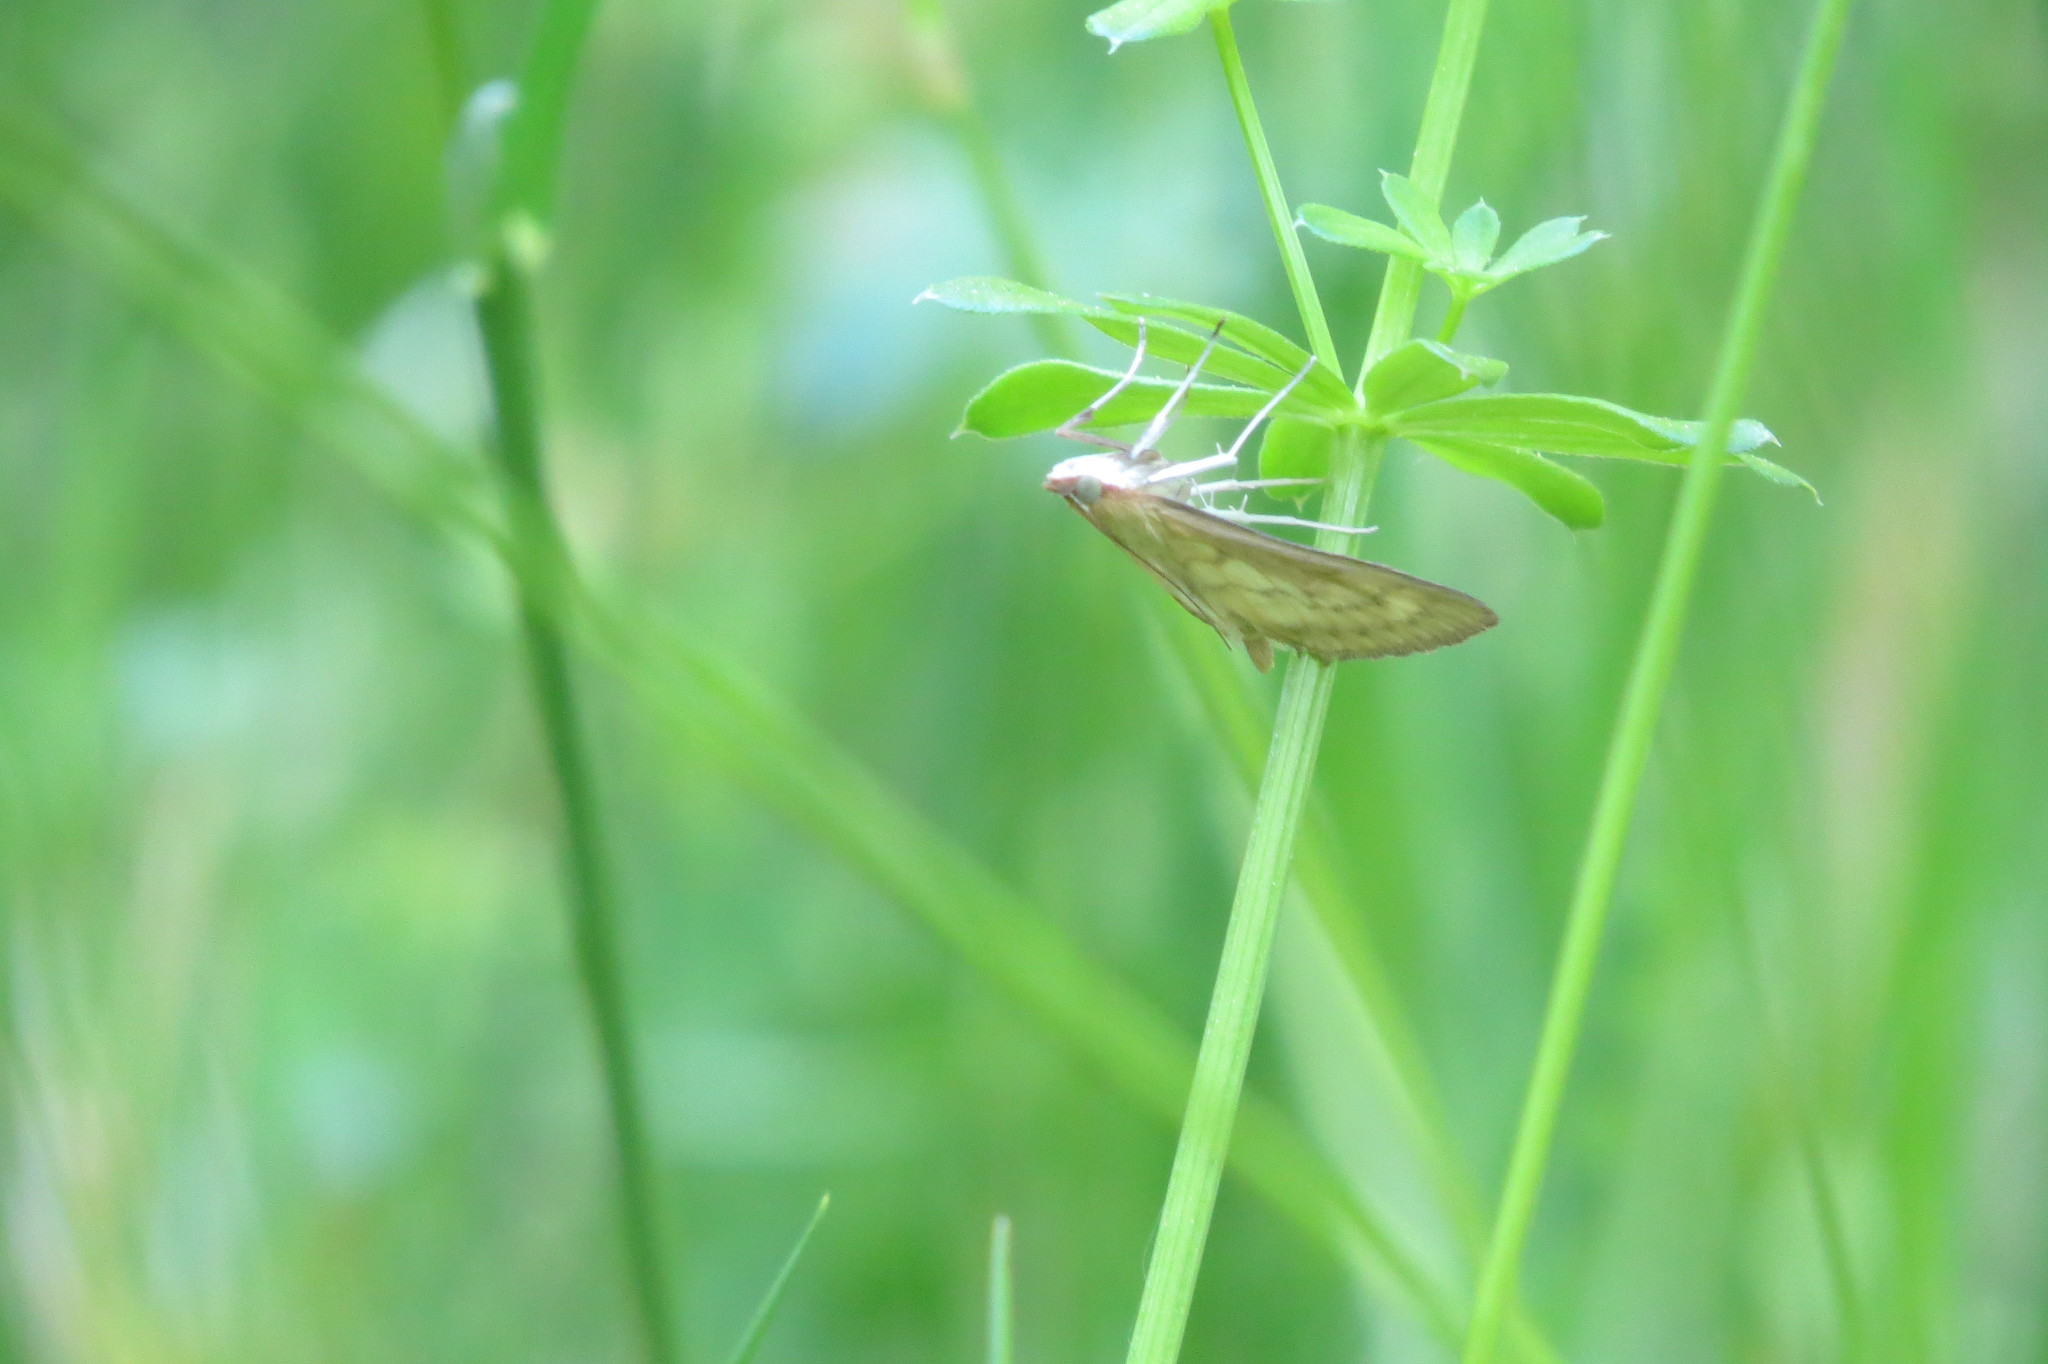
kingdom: Animalia
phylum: Arthropoda
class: Insecta
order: Lepidoptera
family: Crambidae
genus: Paratalanta
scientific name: Paratalanta pandalis
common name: Bordered pearl
